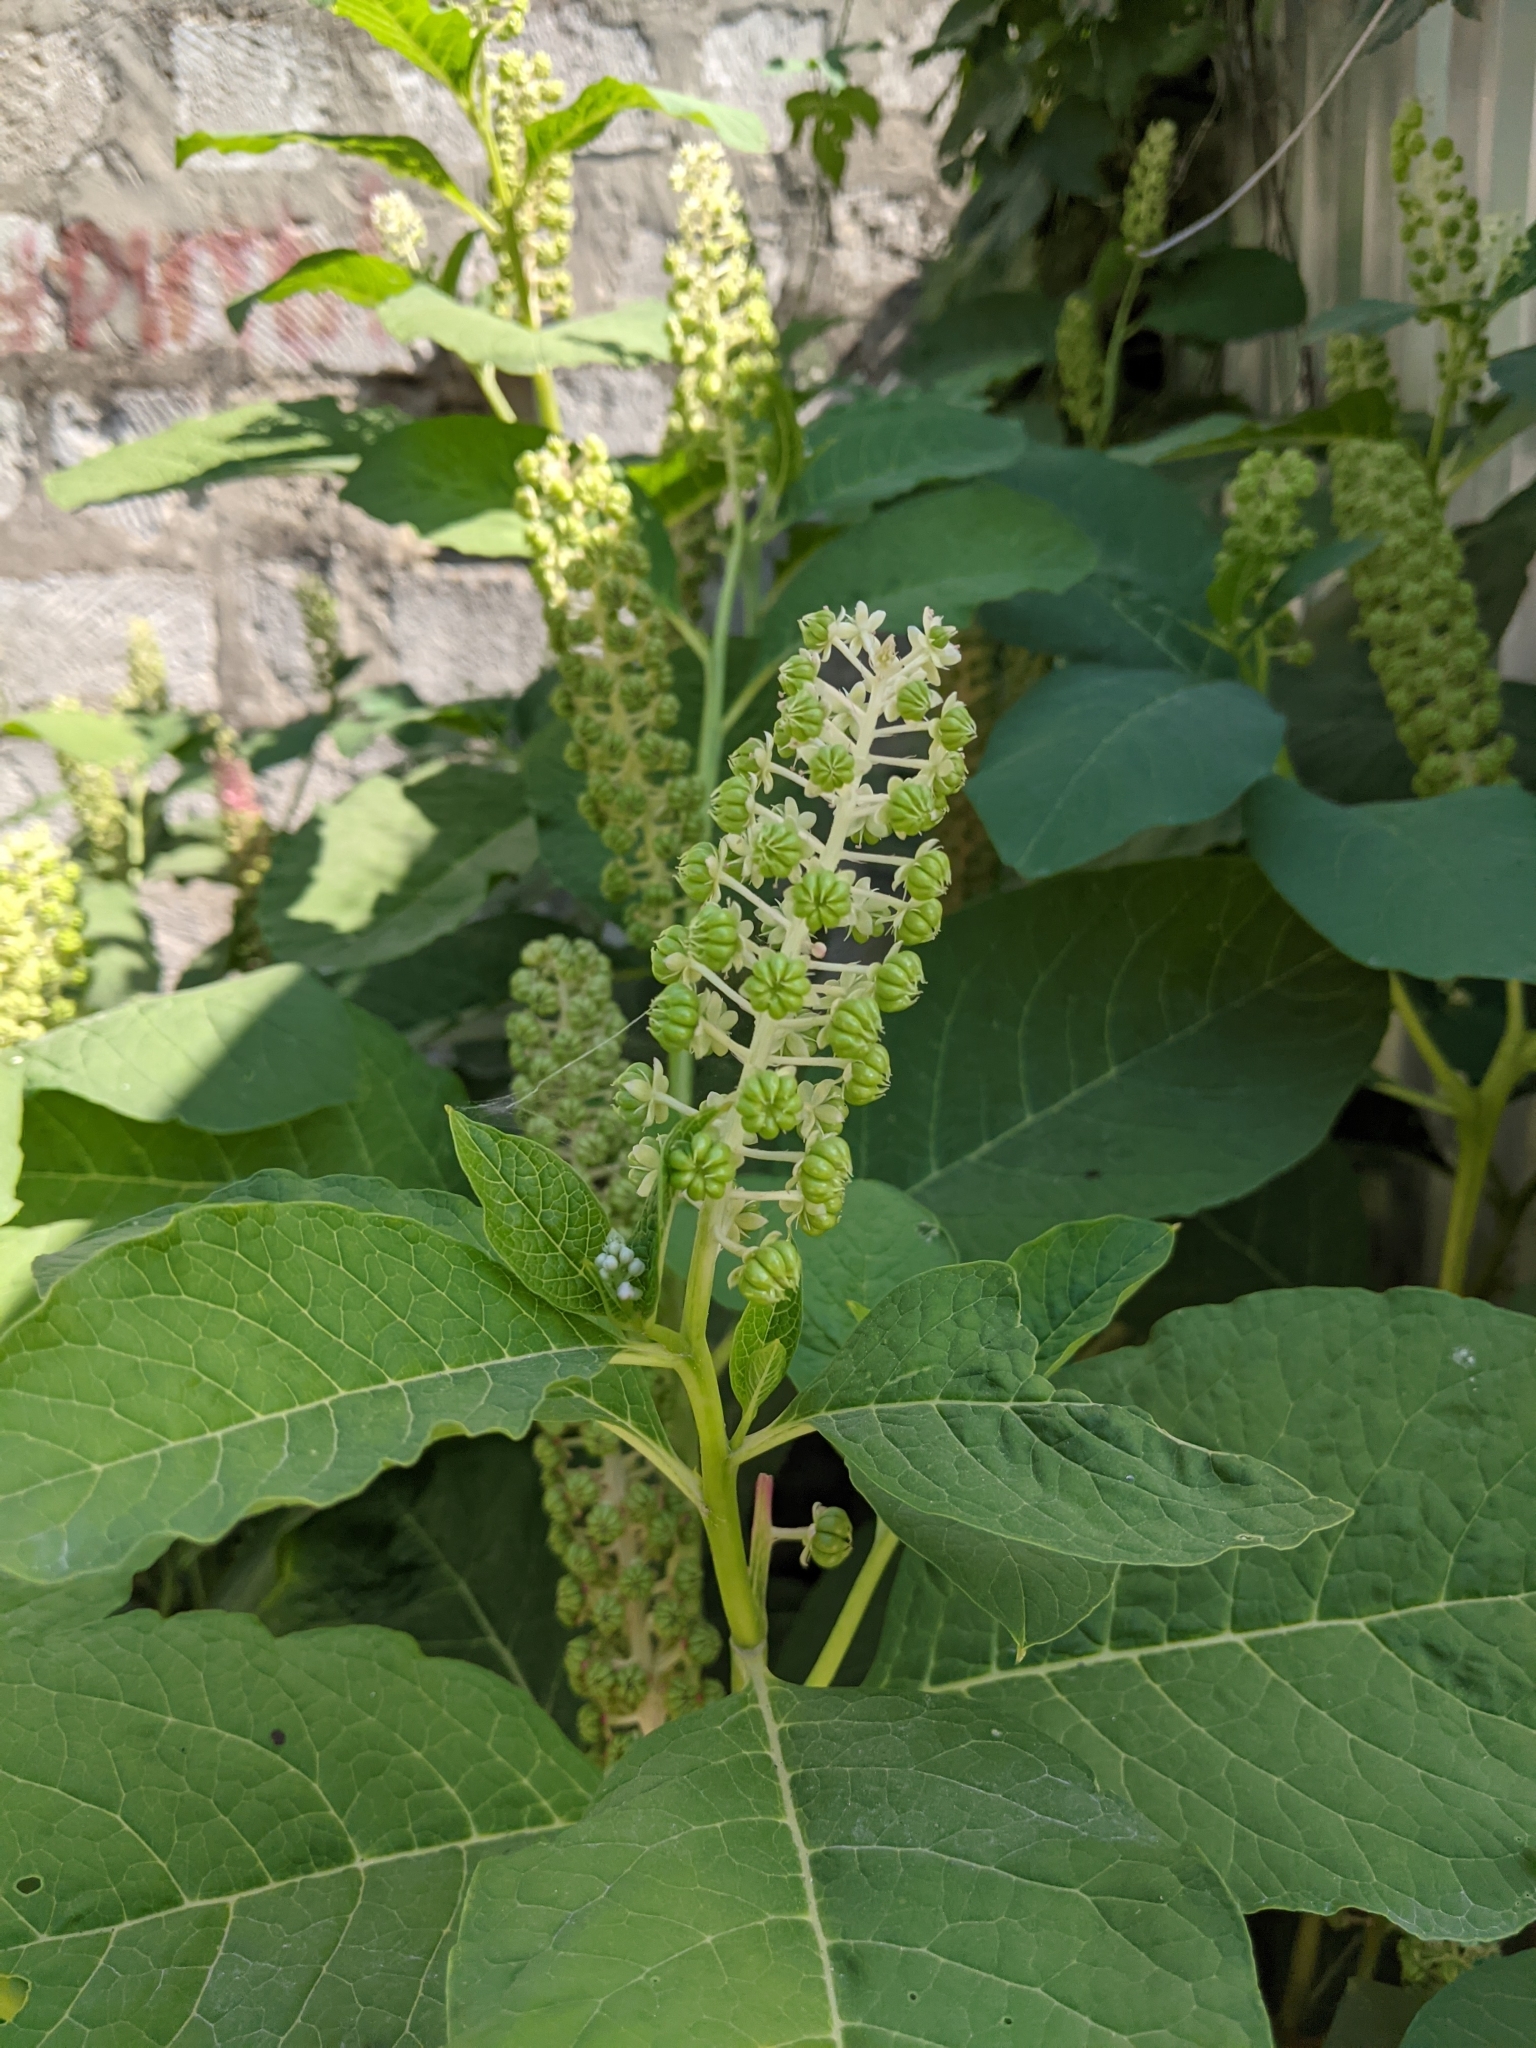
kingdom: Plantae
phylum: Tracheophyta
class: Magnoliopsida
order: Caryophyllales
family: Phytolaccaceae
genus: Phytolacca
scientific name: Phytolacca acinosa
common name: Indian pokeweed
